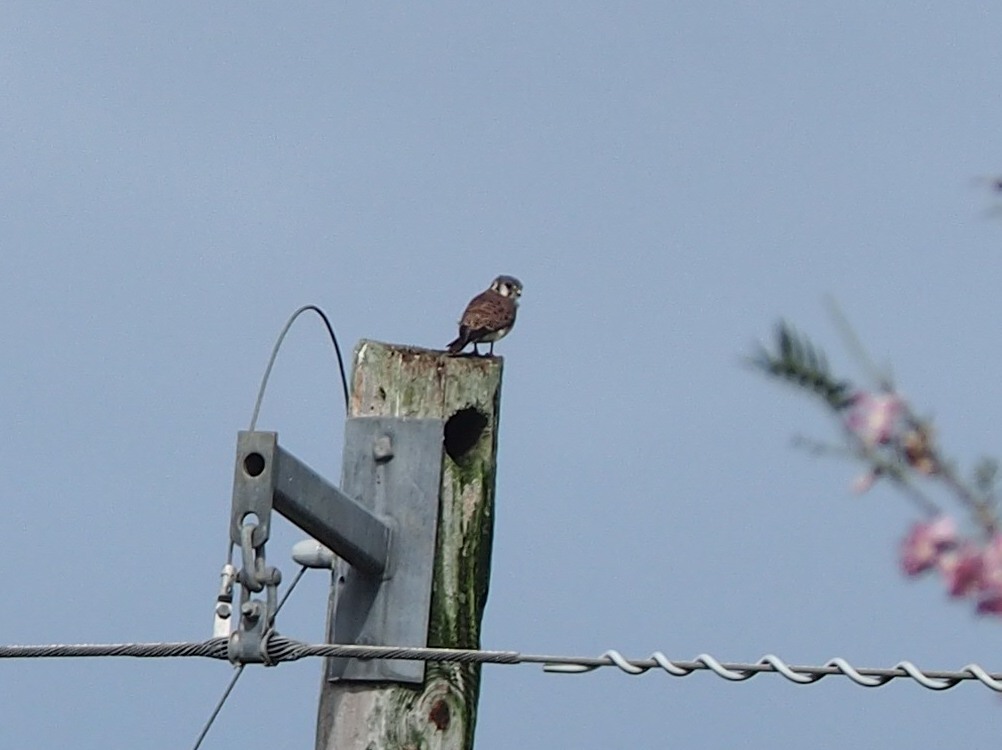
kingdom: Animalia
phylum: Chordata
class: Aves
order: Falconiformes
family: Falconidae
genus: Falco
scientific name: Falco sparverius
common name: American kestrel
